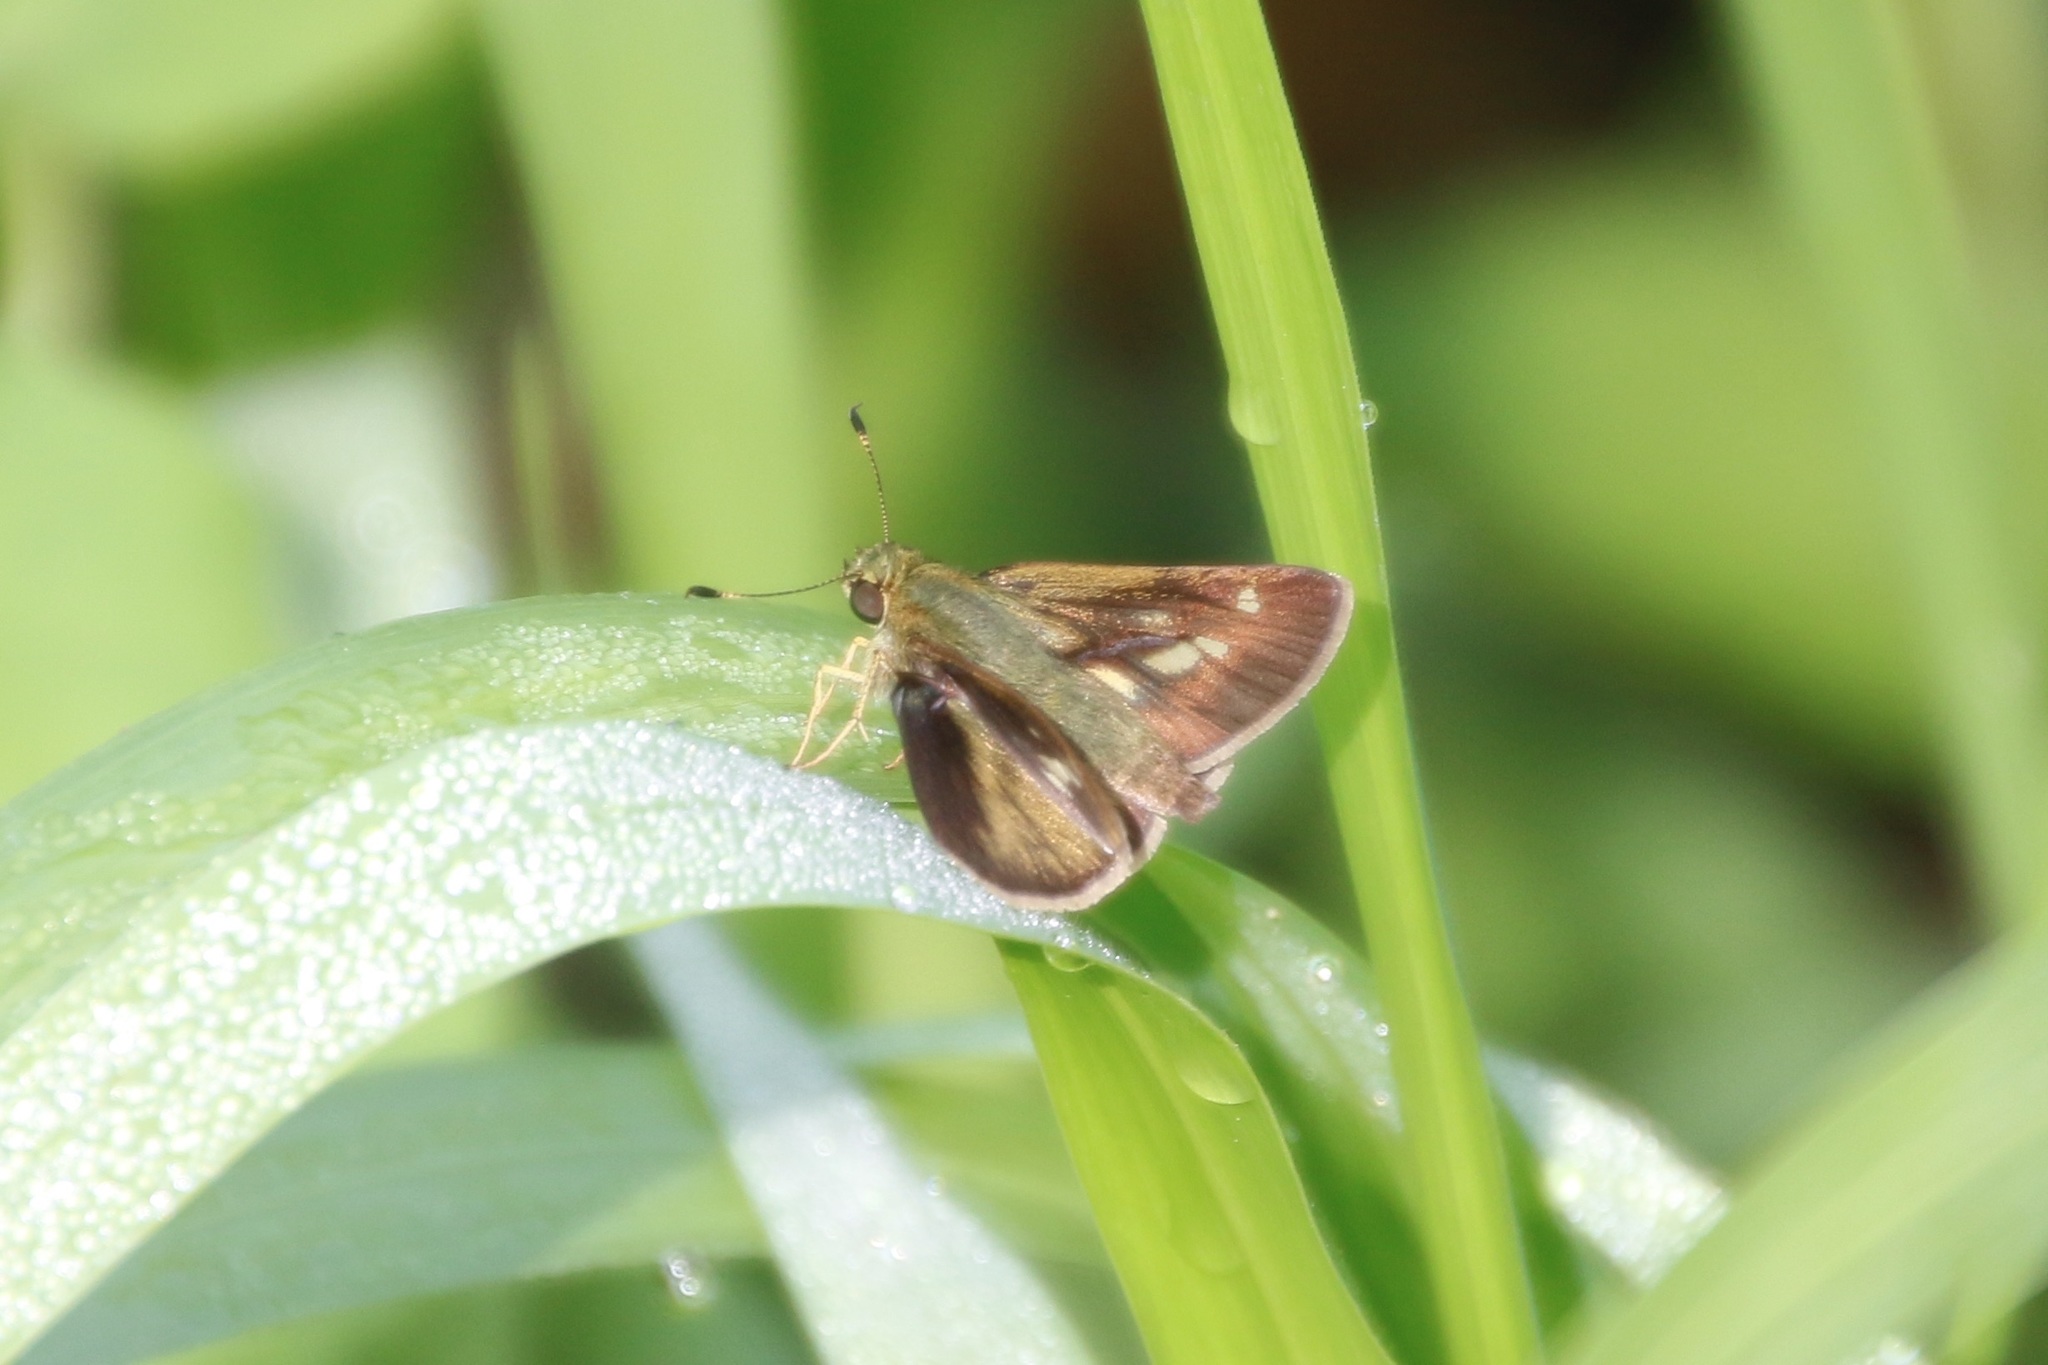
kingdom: Animalia
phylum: Arthropoda
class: Insecta
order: Lepidoptera
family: Hesperiidae
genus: Vernia
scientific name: Vernia verna
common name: Little glassywing
